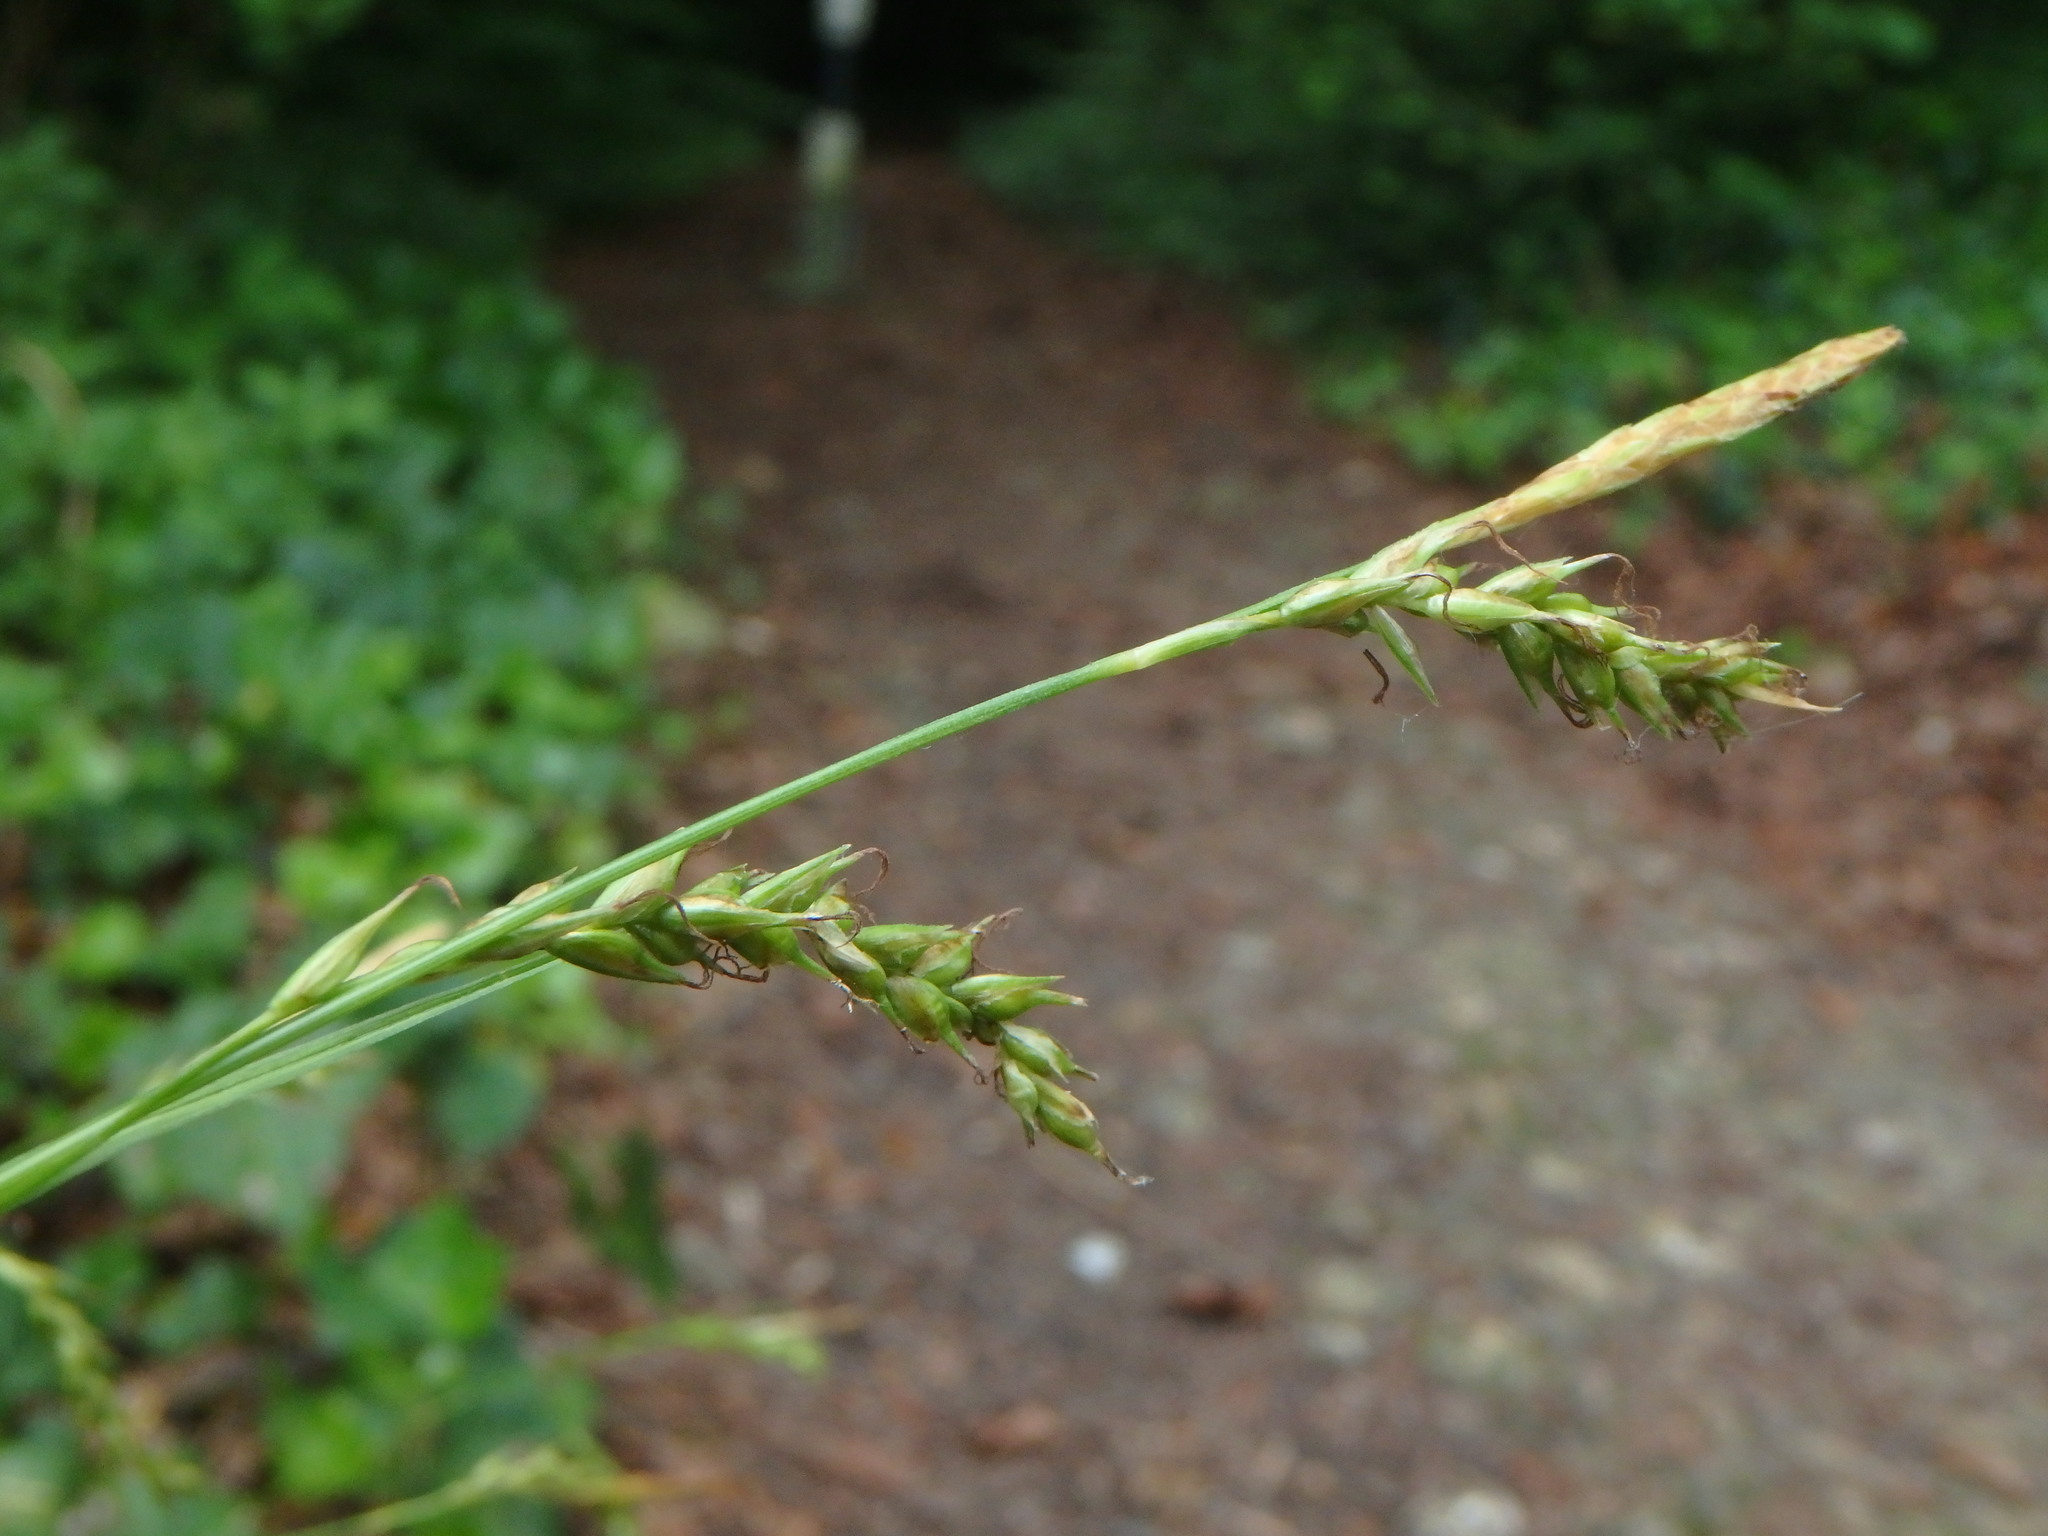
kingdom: Plantae
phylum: Tracheophyta
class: Liliopsida
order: Poales
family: Cyperaceae
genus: Carex
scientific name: Carex sylvatica
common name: Wood-sedge
